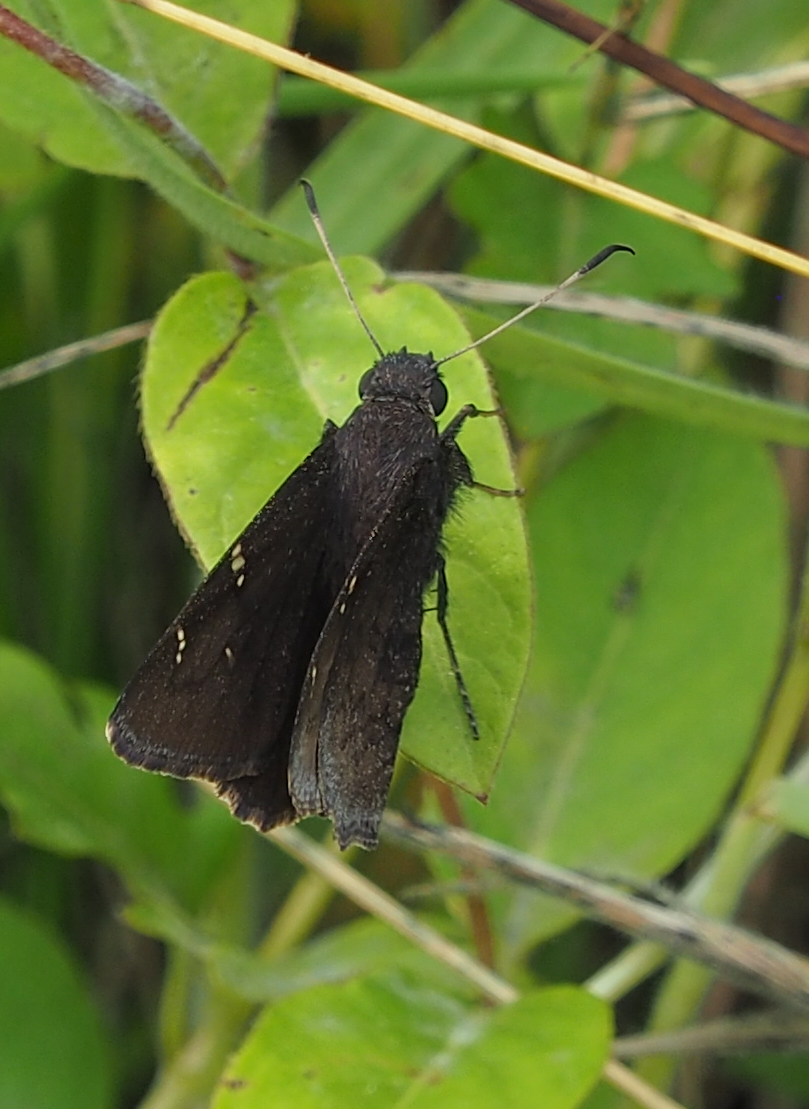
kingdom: Animalia
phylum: Arthropoda
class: Insecta
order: Lepidoptera
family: Hesperiidae
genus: Thorybes
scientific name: Thorybes pylades
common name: Northern cloudywing
